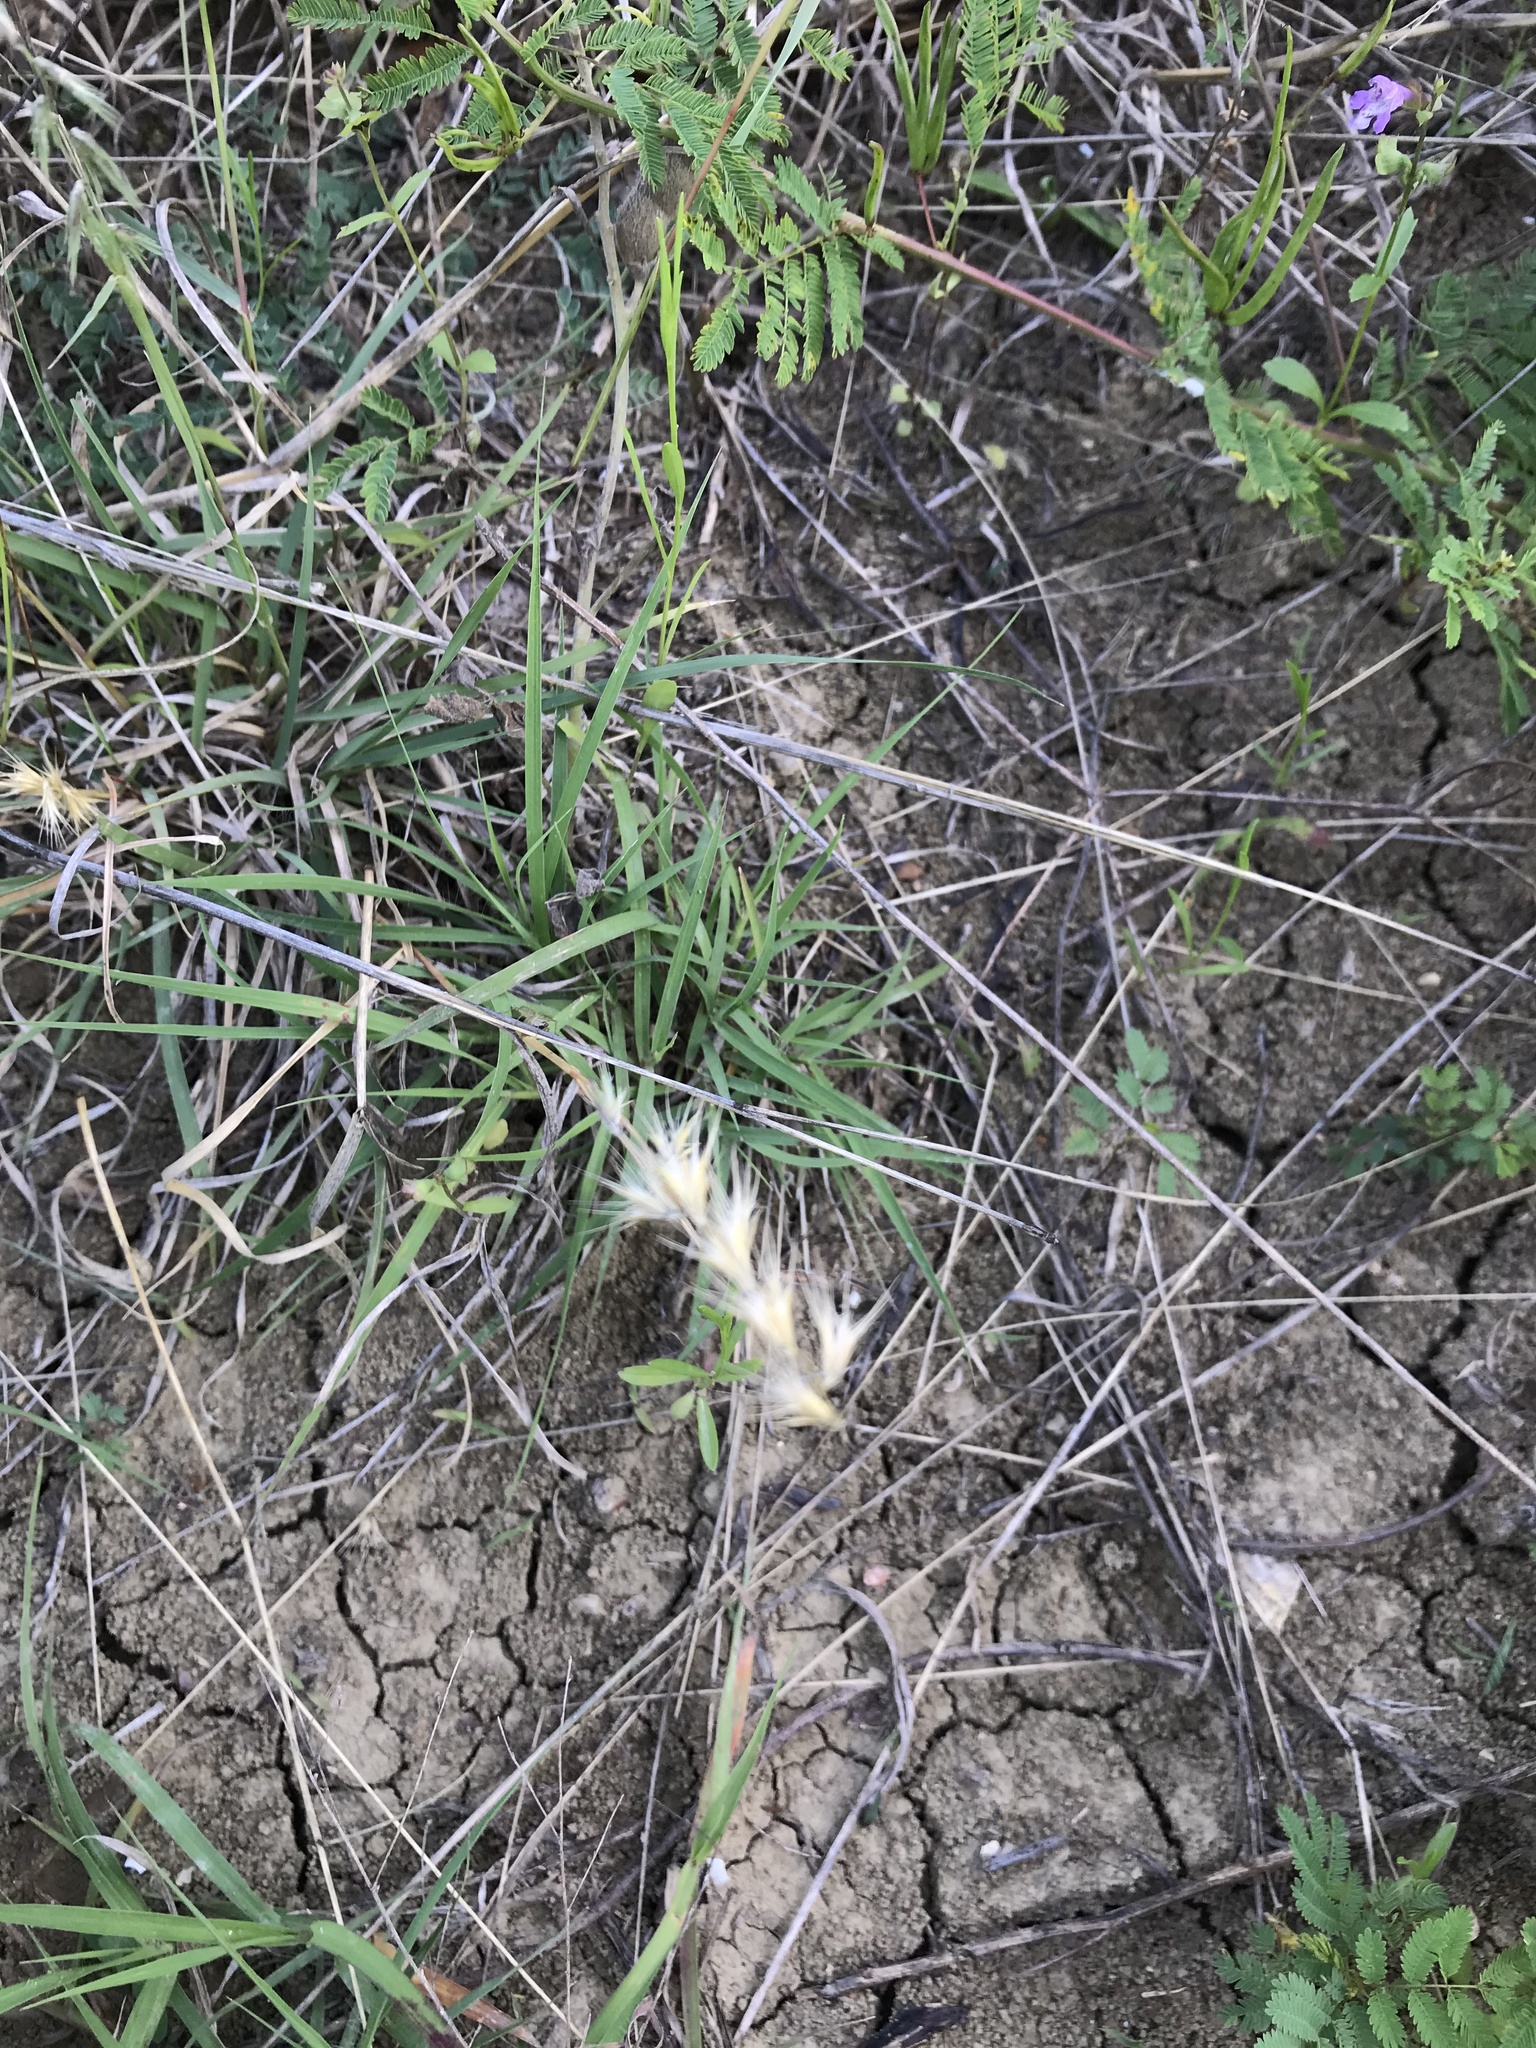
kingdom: Plantae
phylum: Tracheophyta
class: Liliopsida
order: Poales
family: Poaceae
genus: Bouteloua
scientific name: Bouteloua rigidiseta
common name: Texas grama
